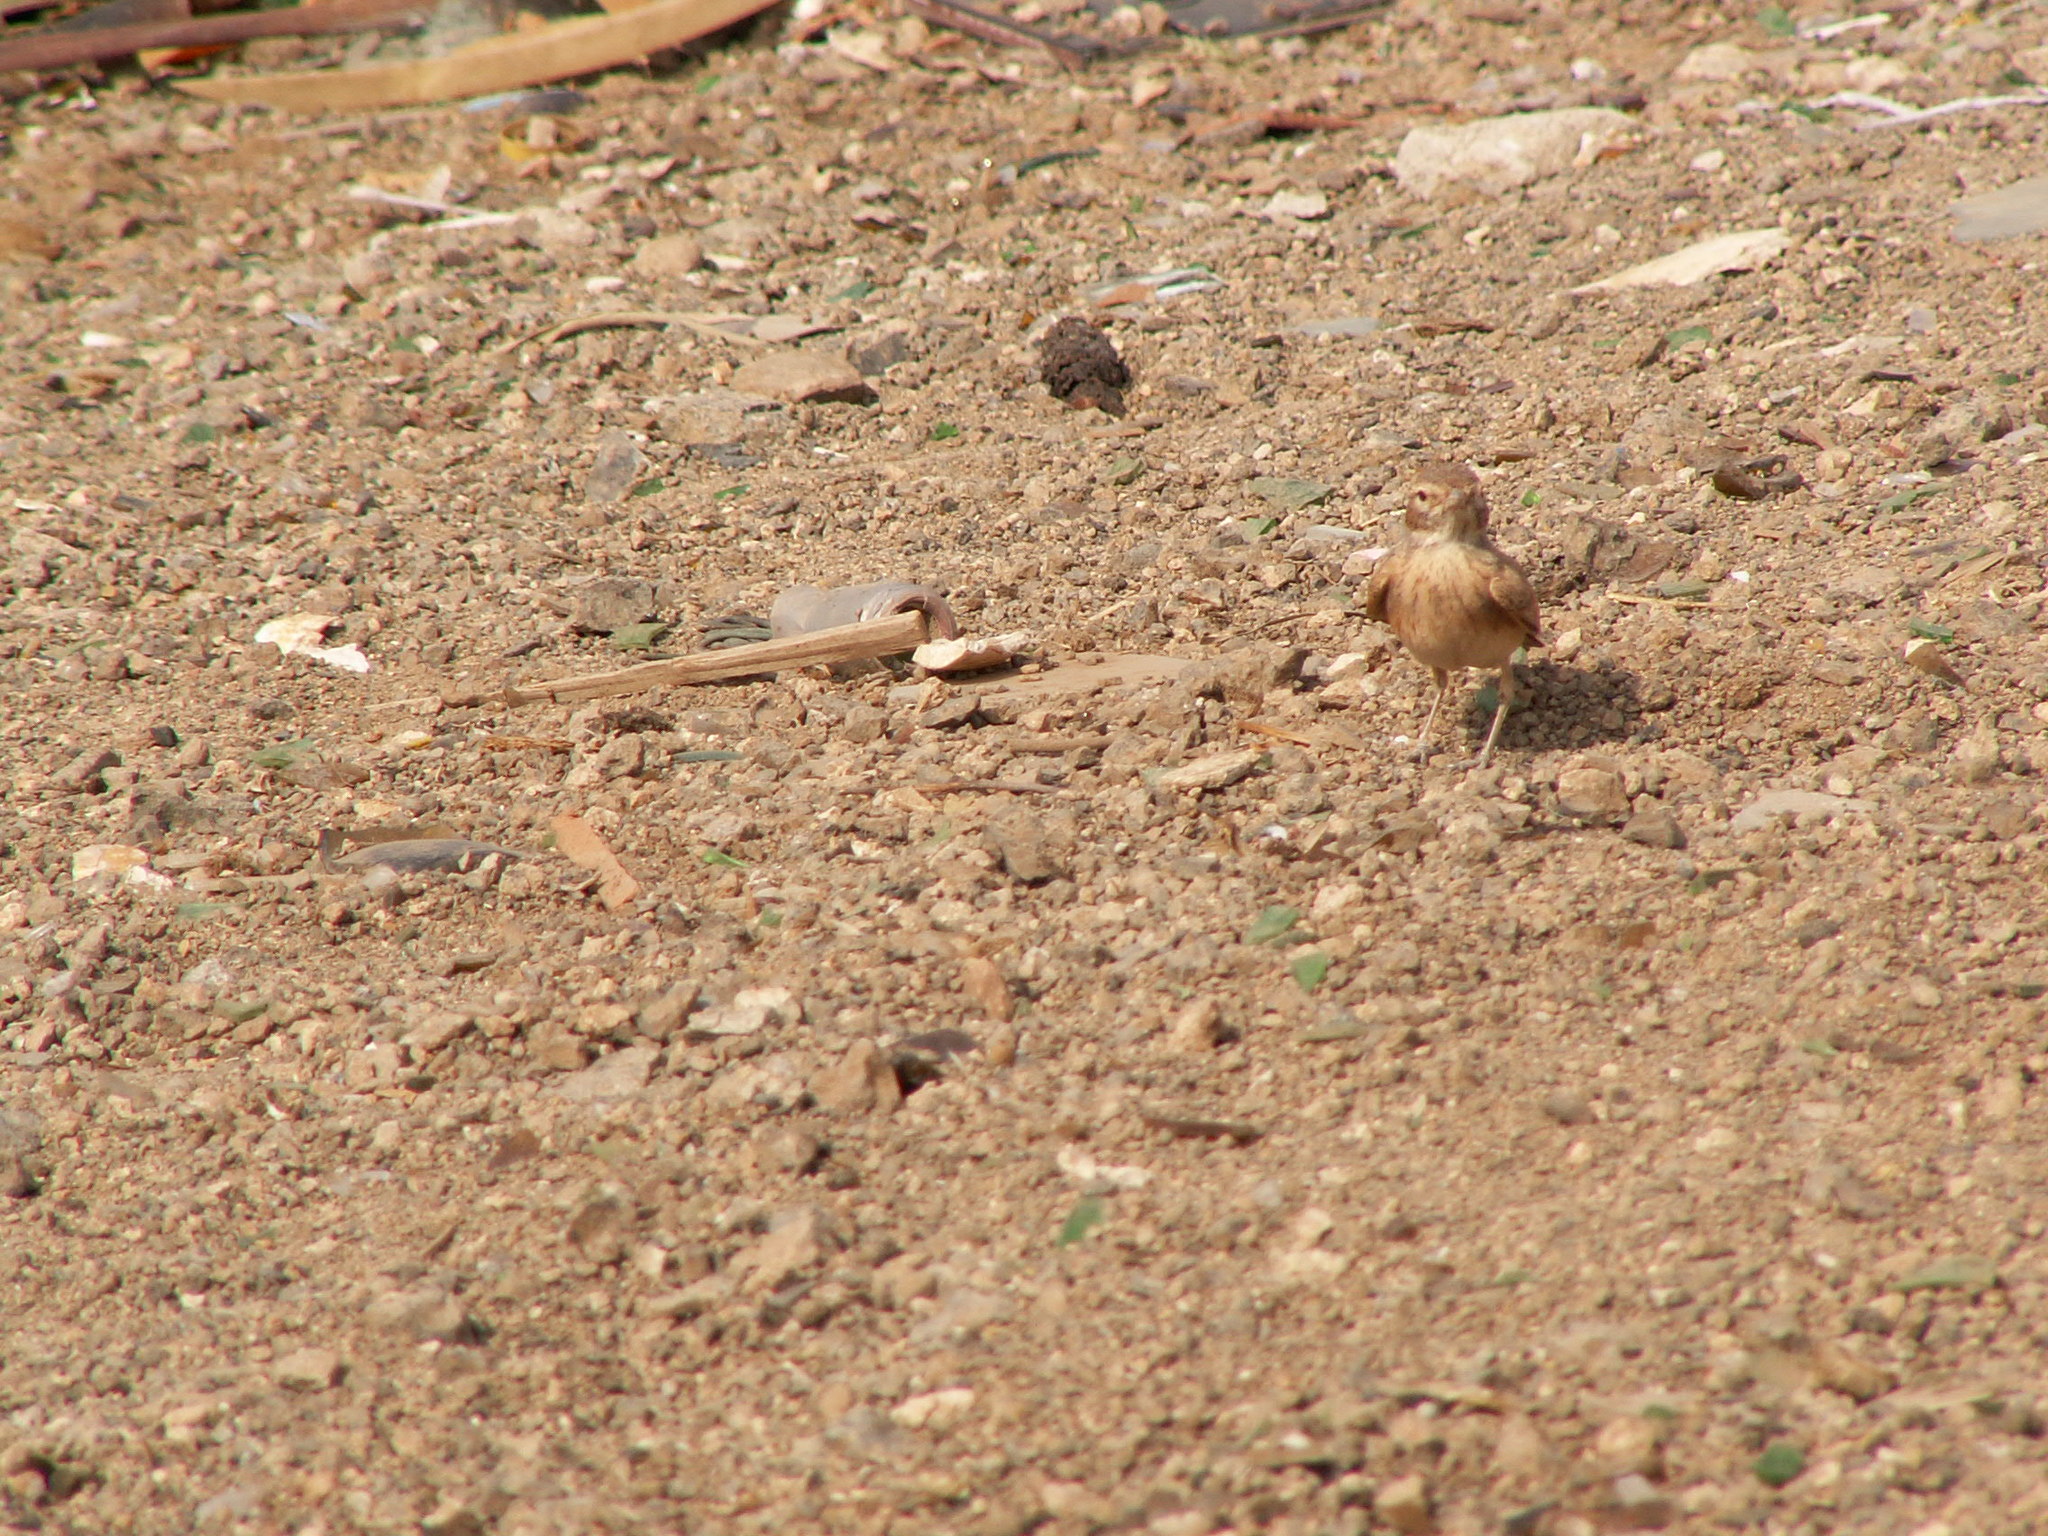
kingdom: Animalia
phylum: Chordata
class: Aves
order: Passeriformes
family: Alaudidae
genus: Ammomanes
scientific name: Ammomanes cinctura
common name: Bar-tailed lark
